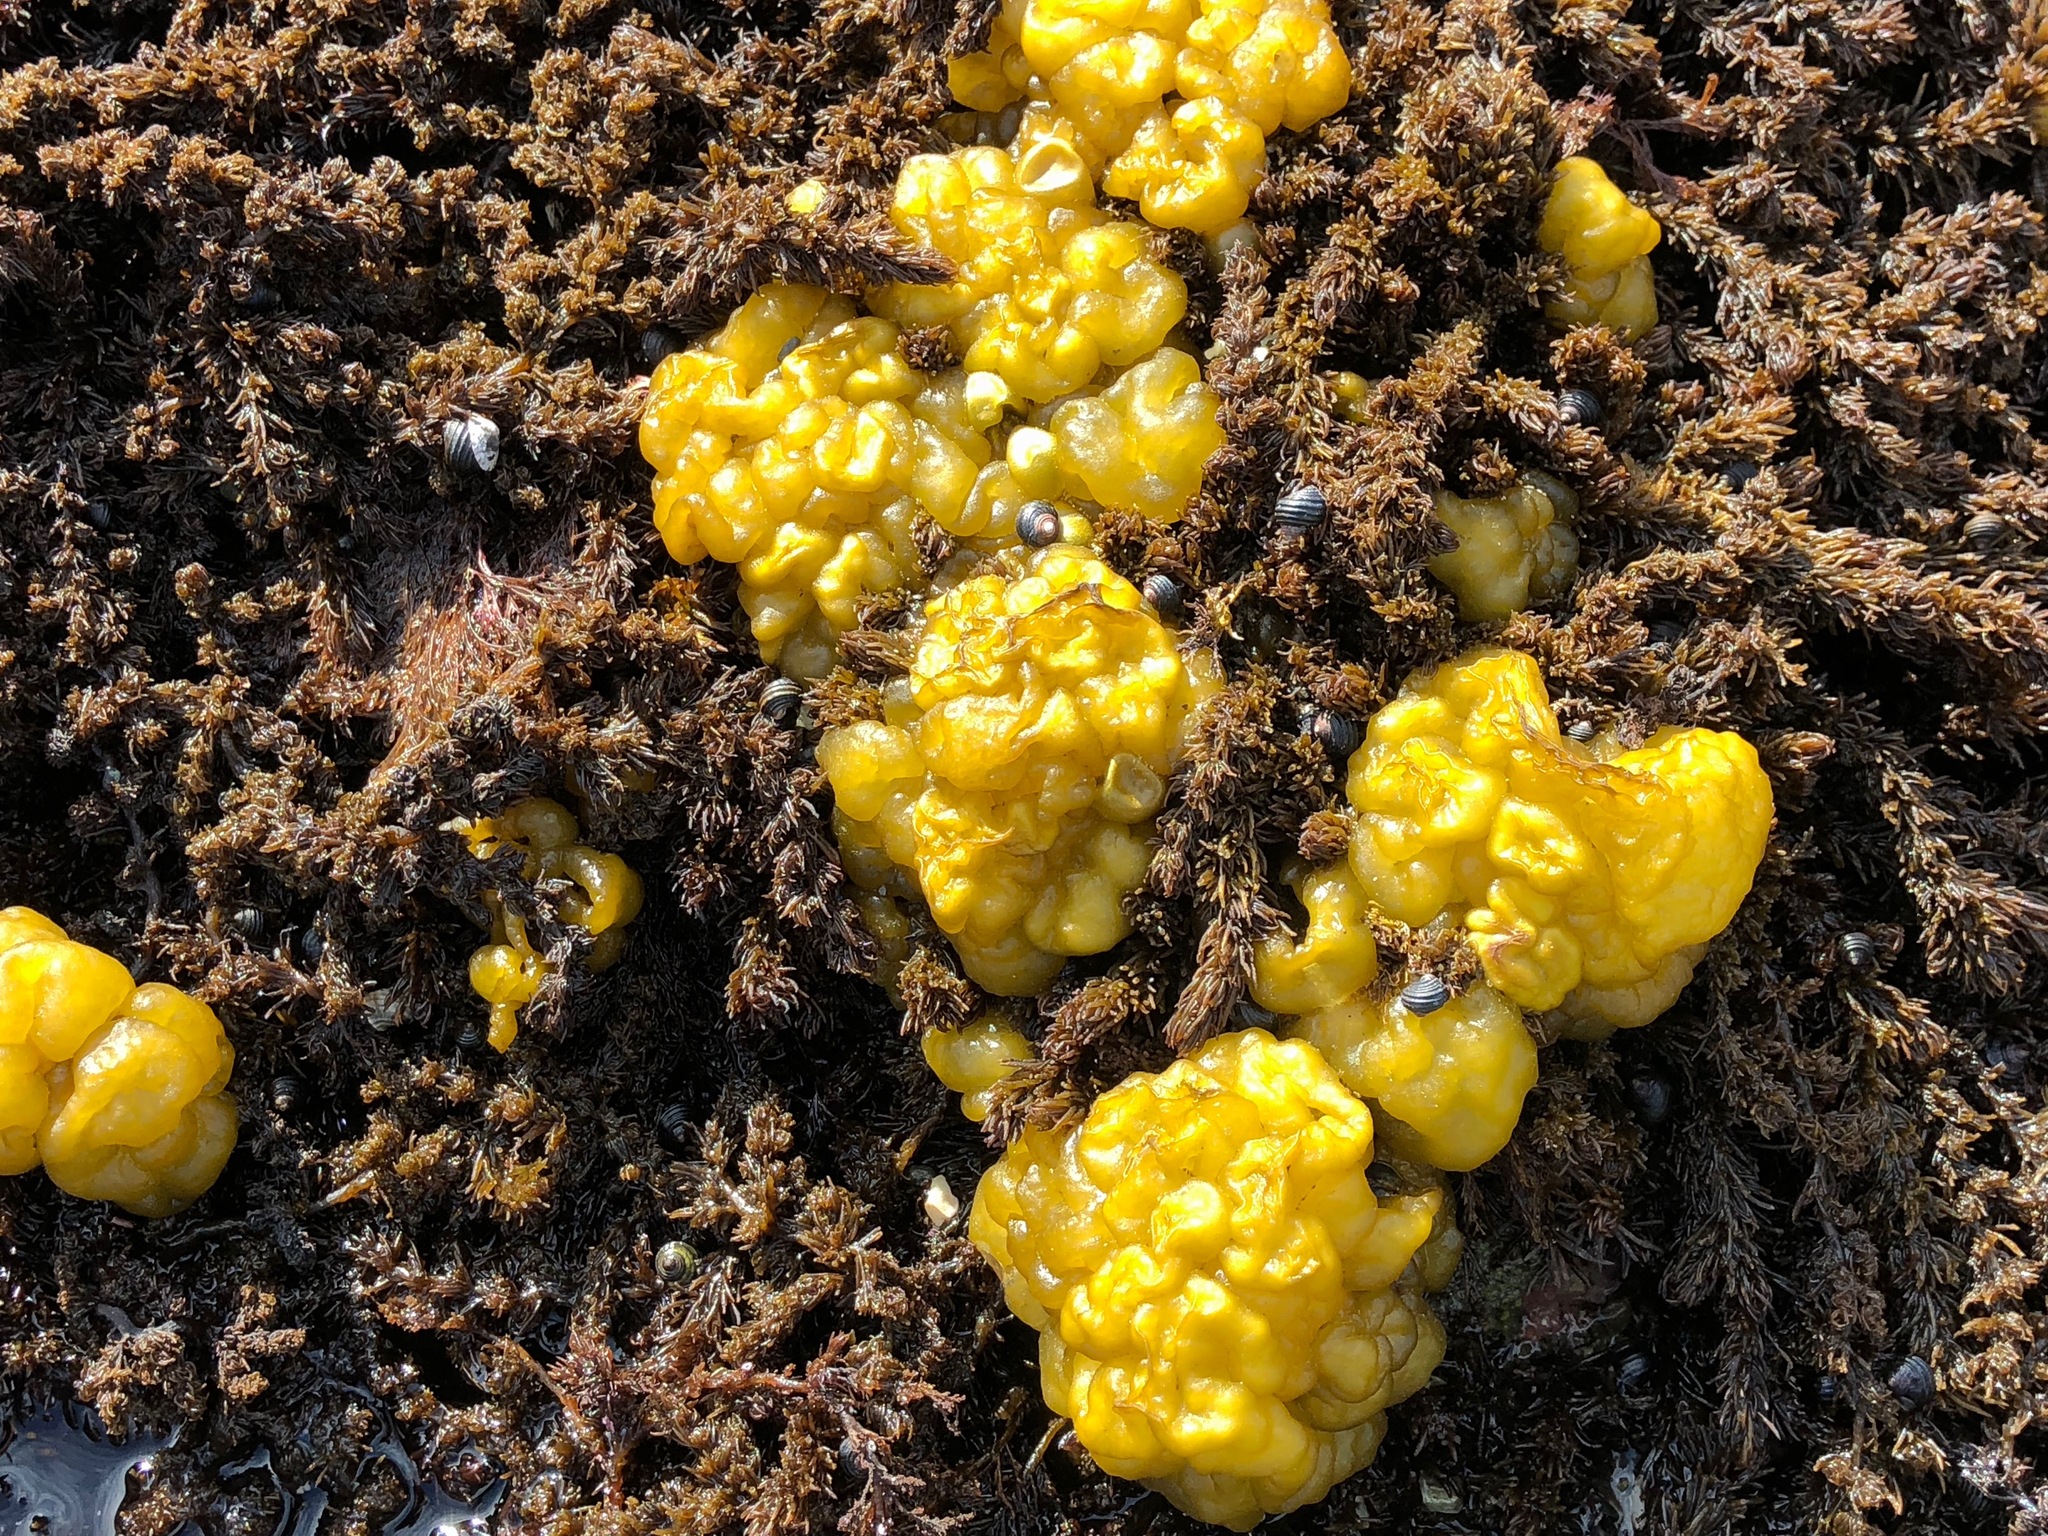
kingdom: Chromista
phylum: Ochrophyta
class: Phaeophyceae
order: Ectocarpales
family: Chordariaceae
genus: Leathesia
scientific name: Leathesia marina
